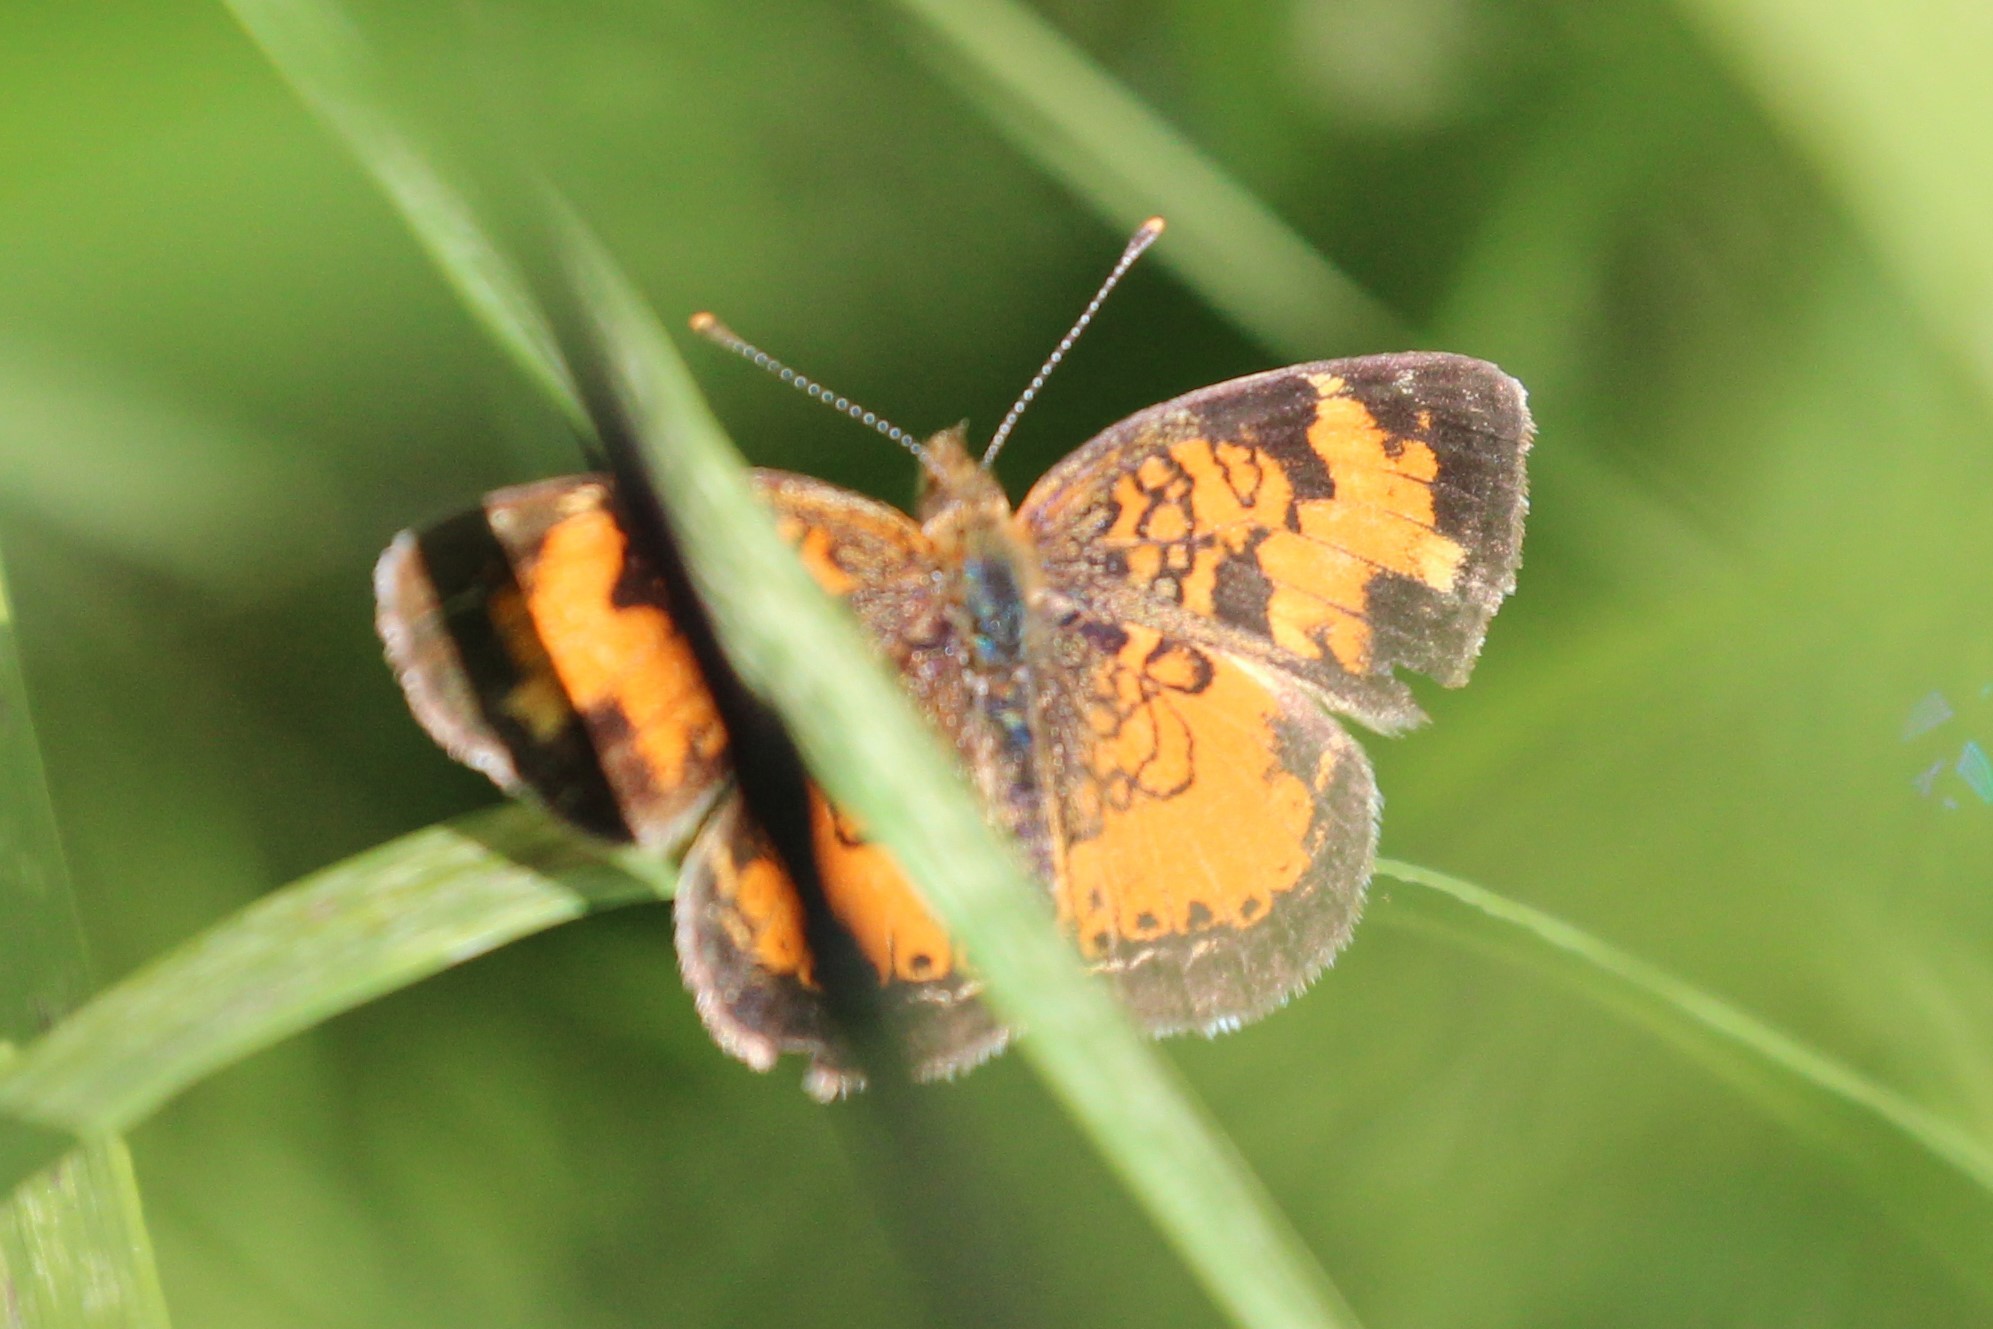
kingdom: Animalia
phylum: Arthropoda
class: Insecta
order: Lepidoptera
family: Nymphalidae
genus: Phyciodes
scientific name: Phyciodes tharos
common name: Pearl crescent
